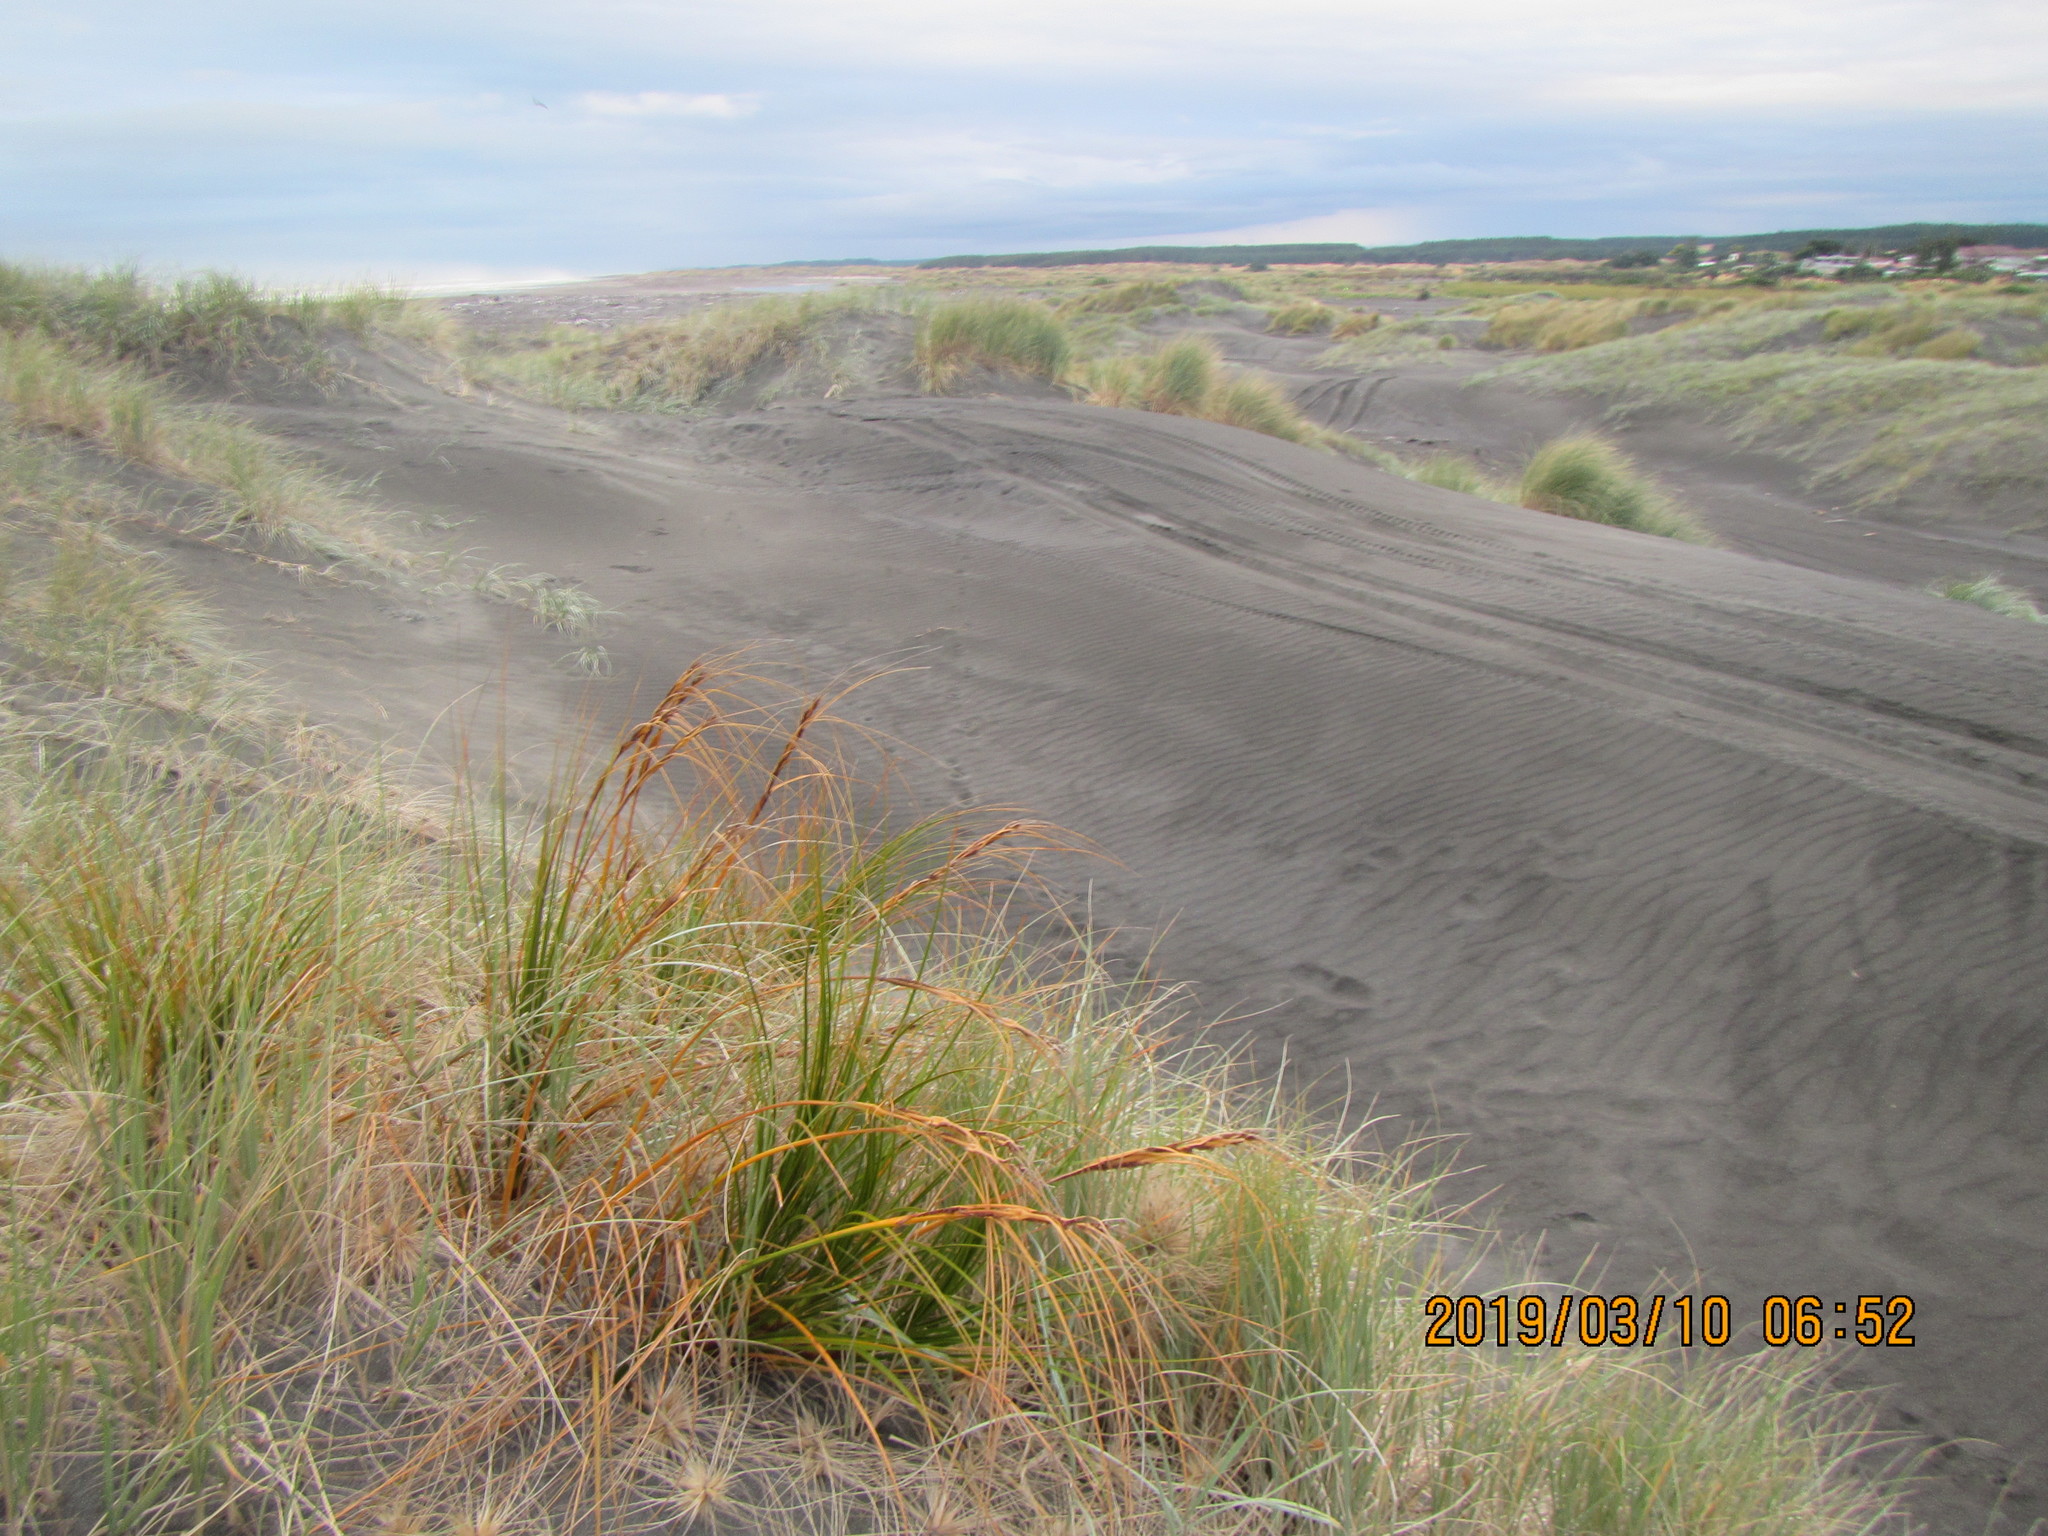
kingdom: Plantae
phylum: Tracheophyta
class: Liliopsida
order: Poales
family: Cyperaceae
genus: Ficinia
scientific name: Ficinia spiralis
